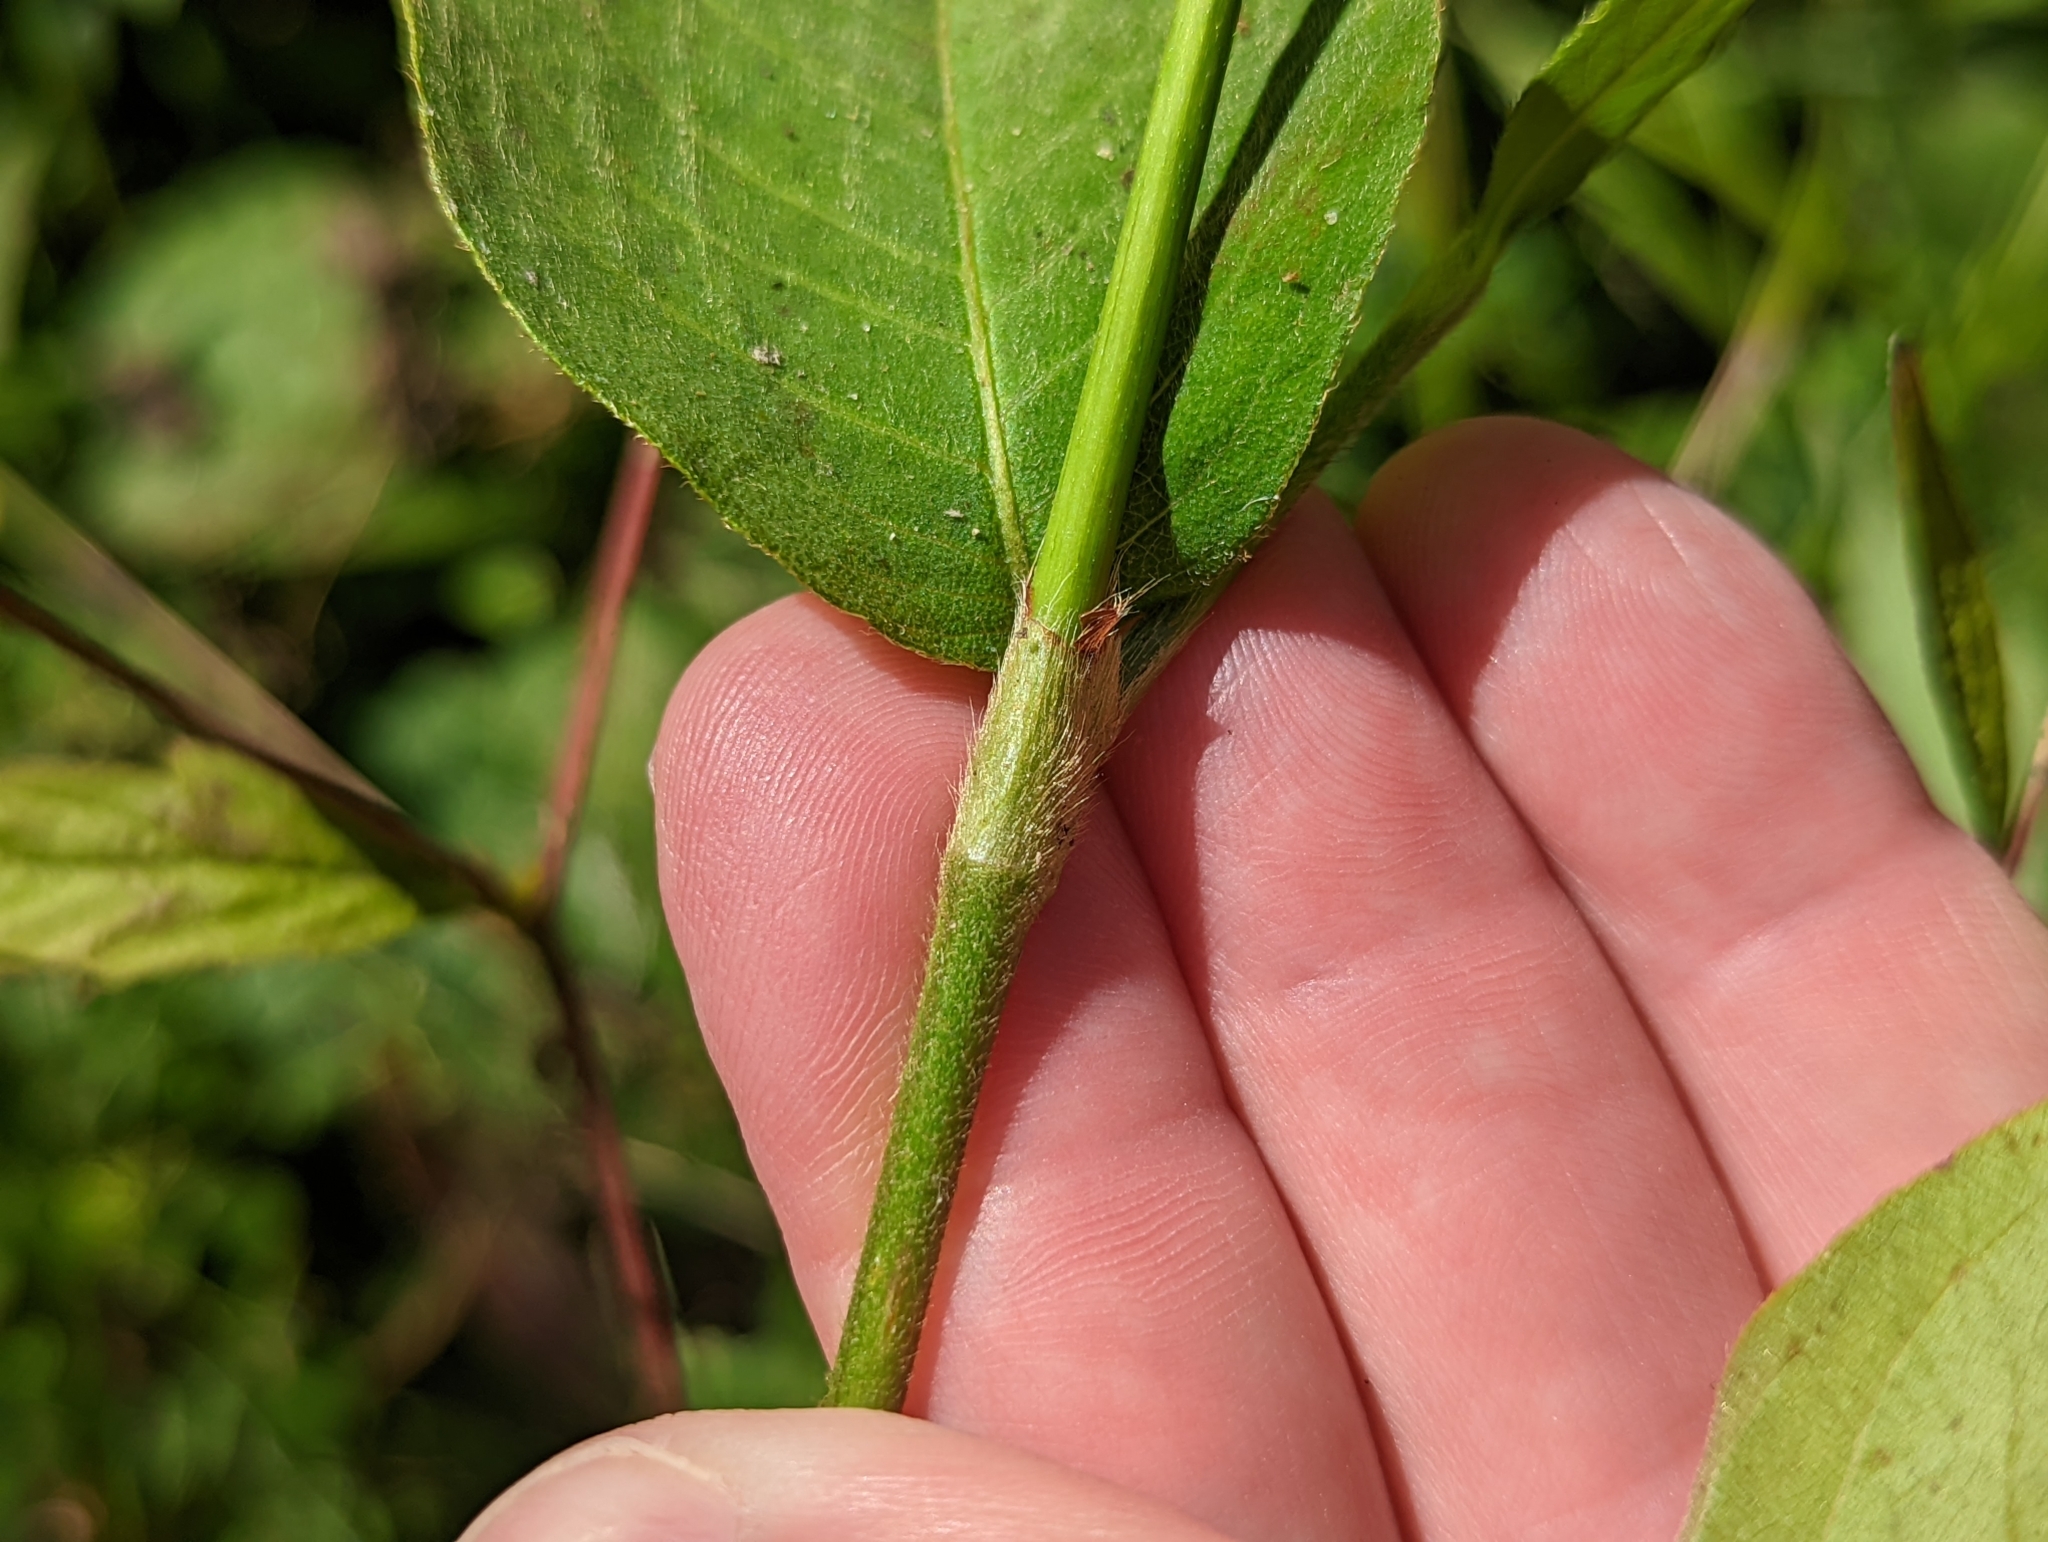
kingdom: Plantae
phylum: Tracheophyta
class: Magnoliopsida
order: Caryophyllales
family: Polygonaceae
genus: Persicaria
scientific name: Persicaria virginiana
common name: Jumpseed
